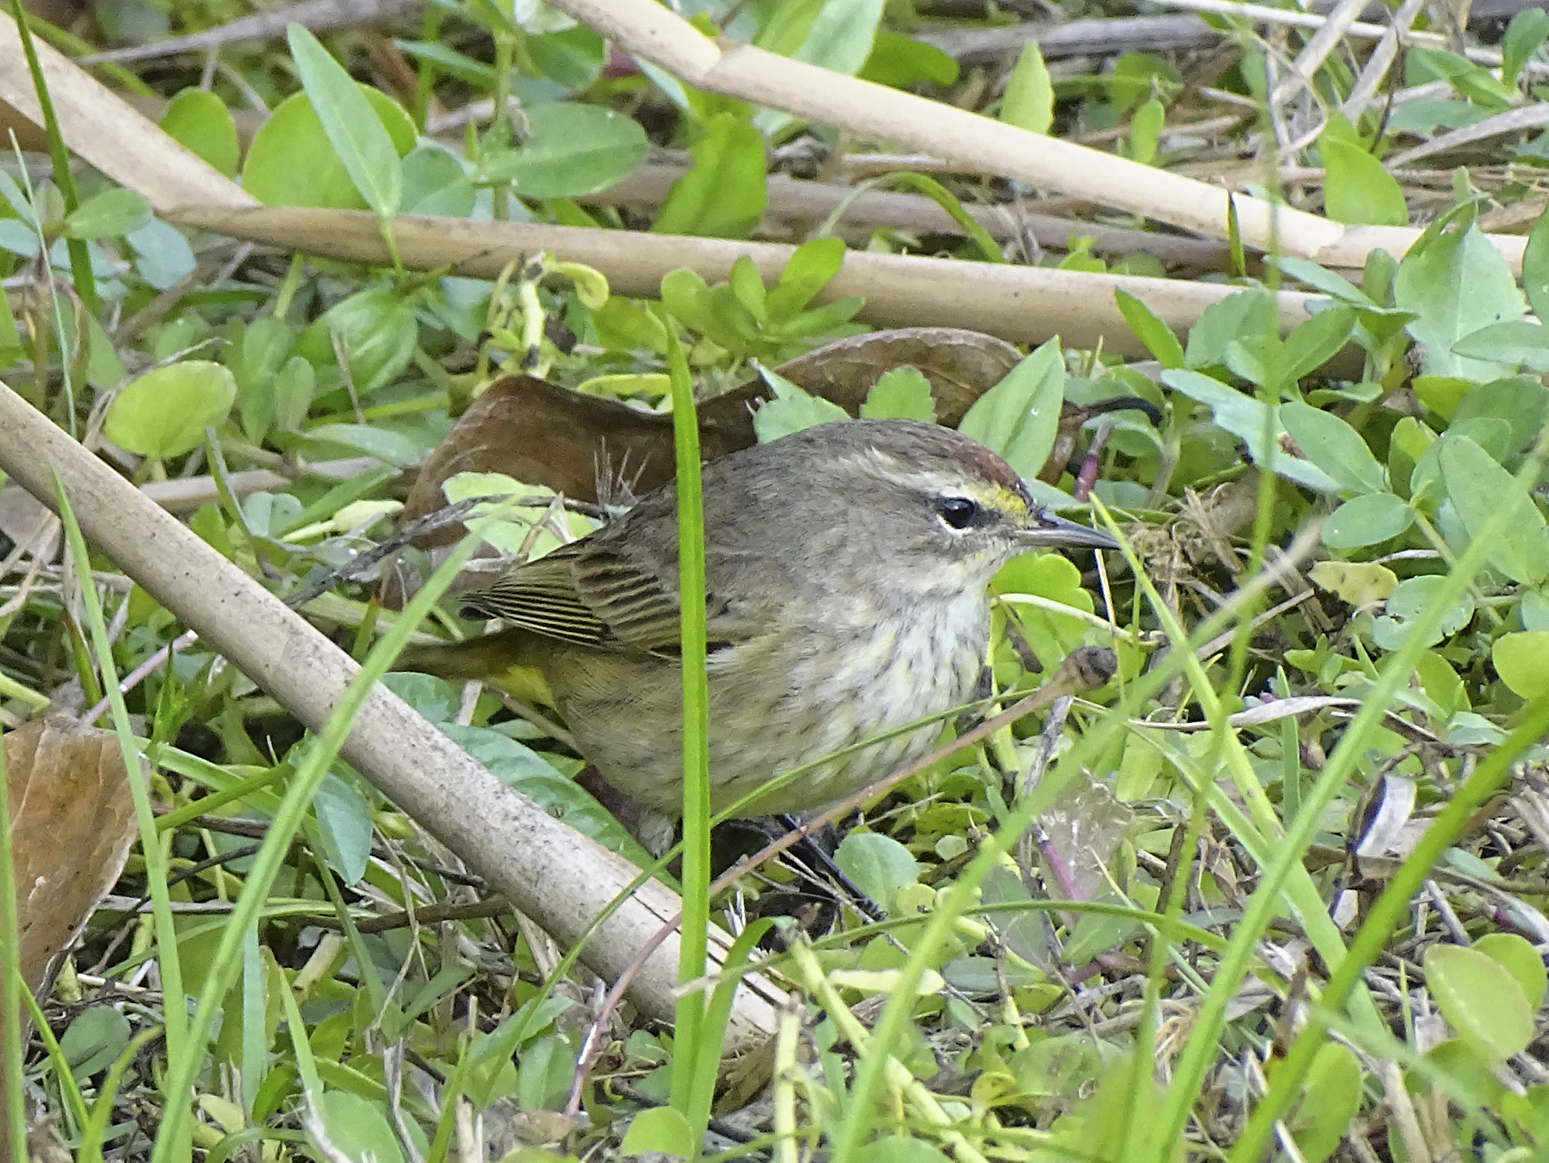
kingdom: Animalia
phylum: Chordata
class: Aves
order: Passeriformes
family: Parulidae
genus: Setophaga
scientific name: Setophaga palmarum
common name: Palm warbler
